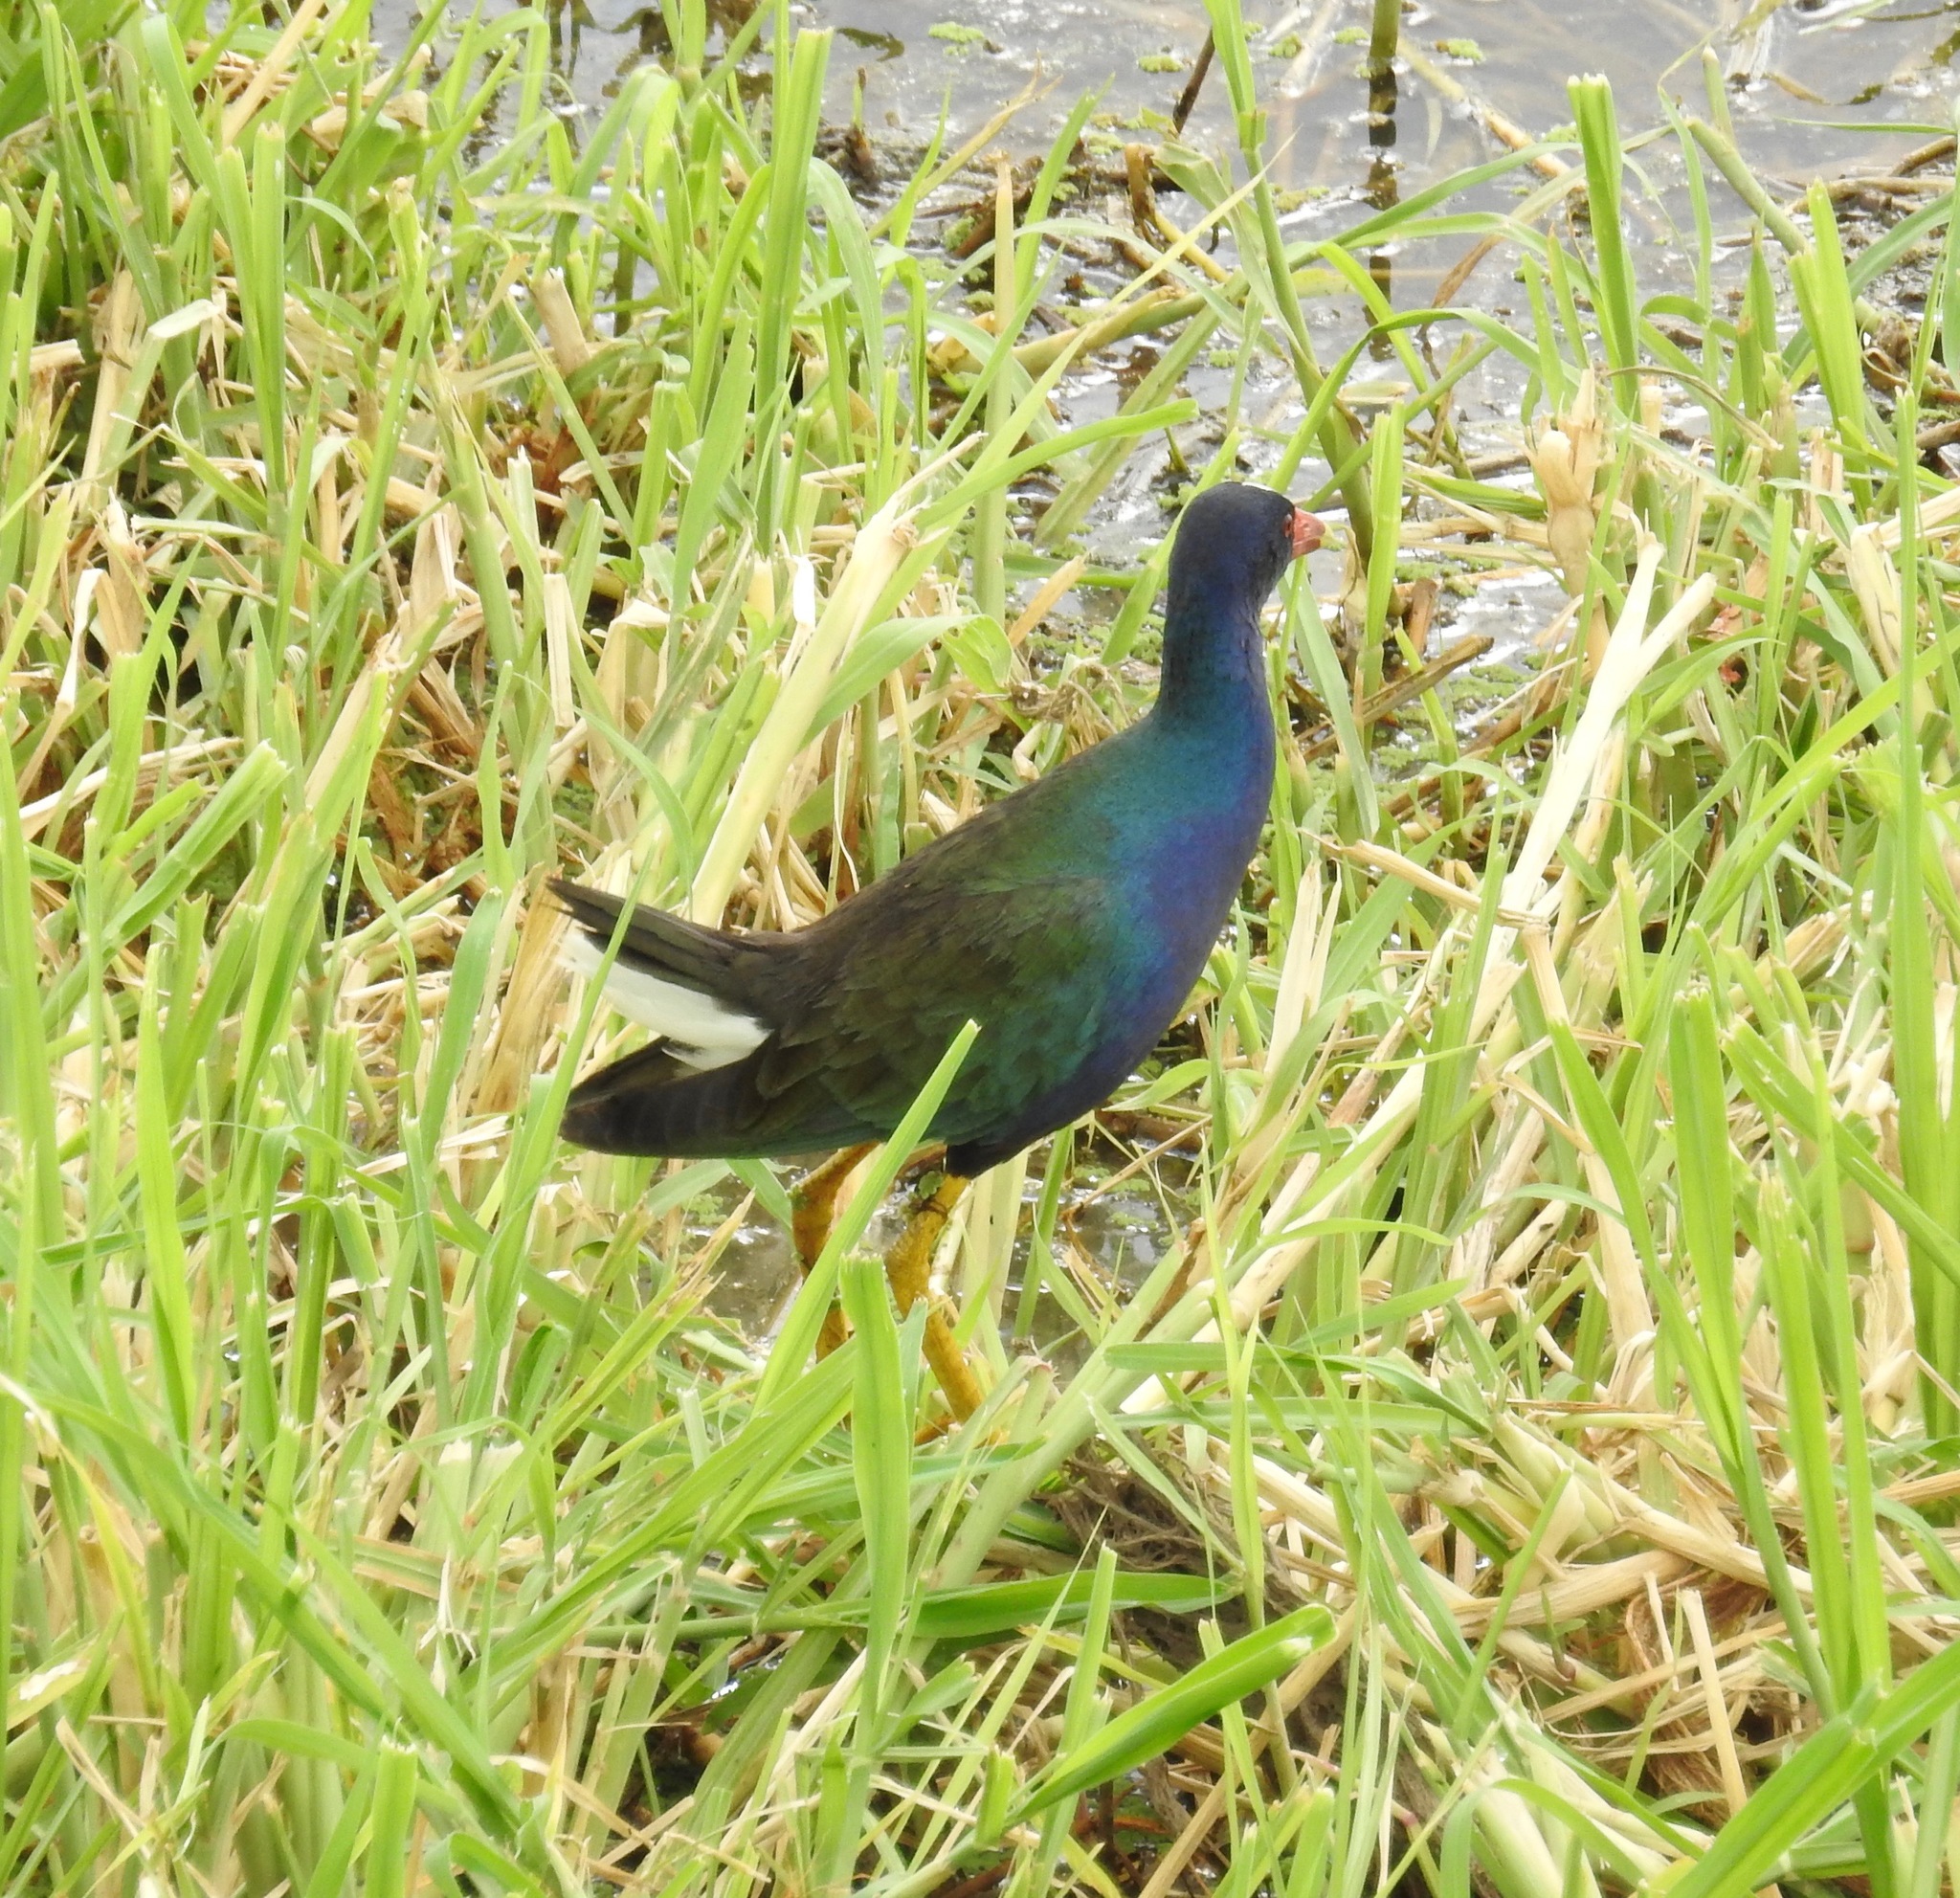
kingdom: Animalia
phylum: Chordata
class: Aves
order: Gruiformes
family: Rallidae
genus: Porphyrio
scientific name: Porphyrio martinica
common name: Purple gallinule
